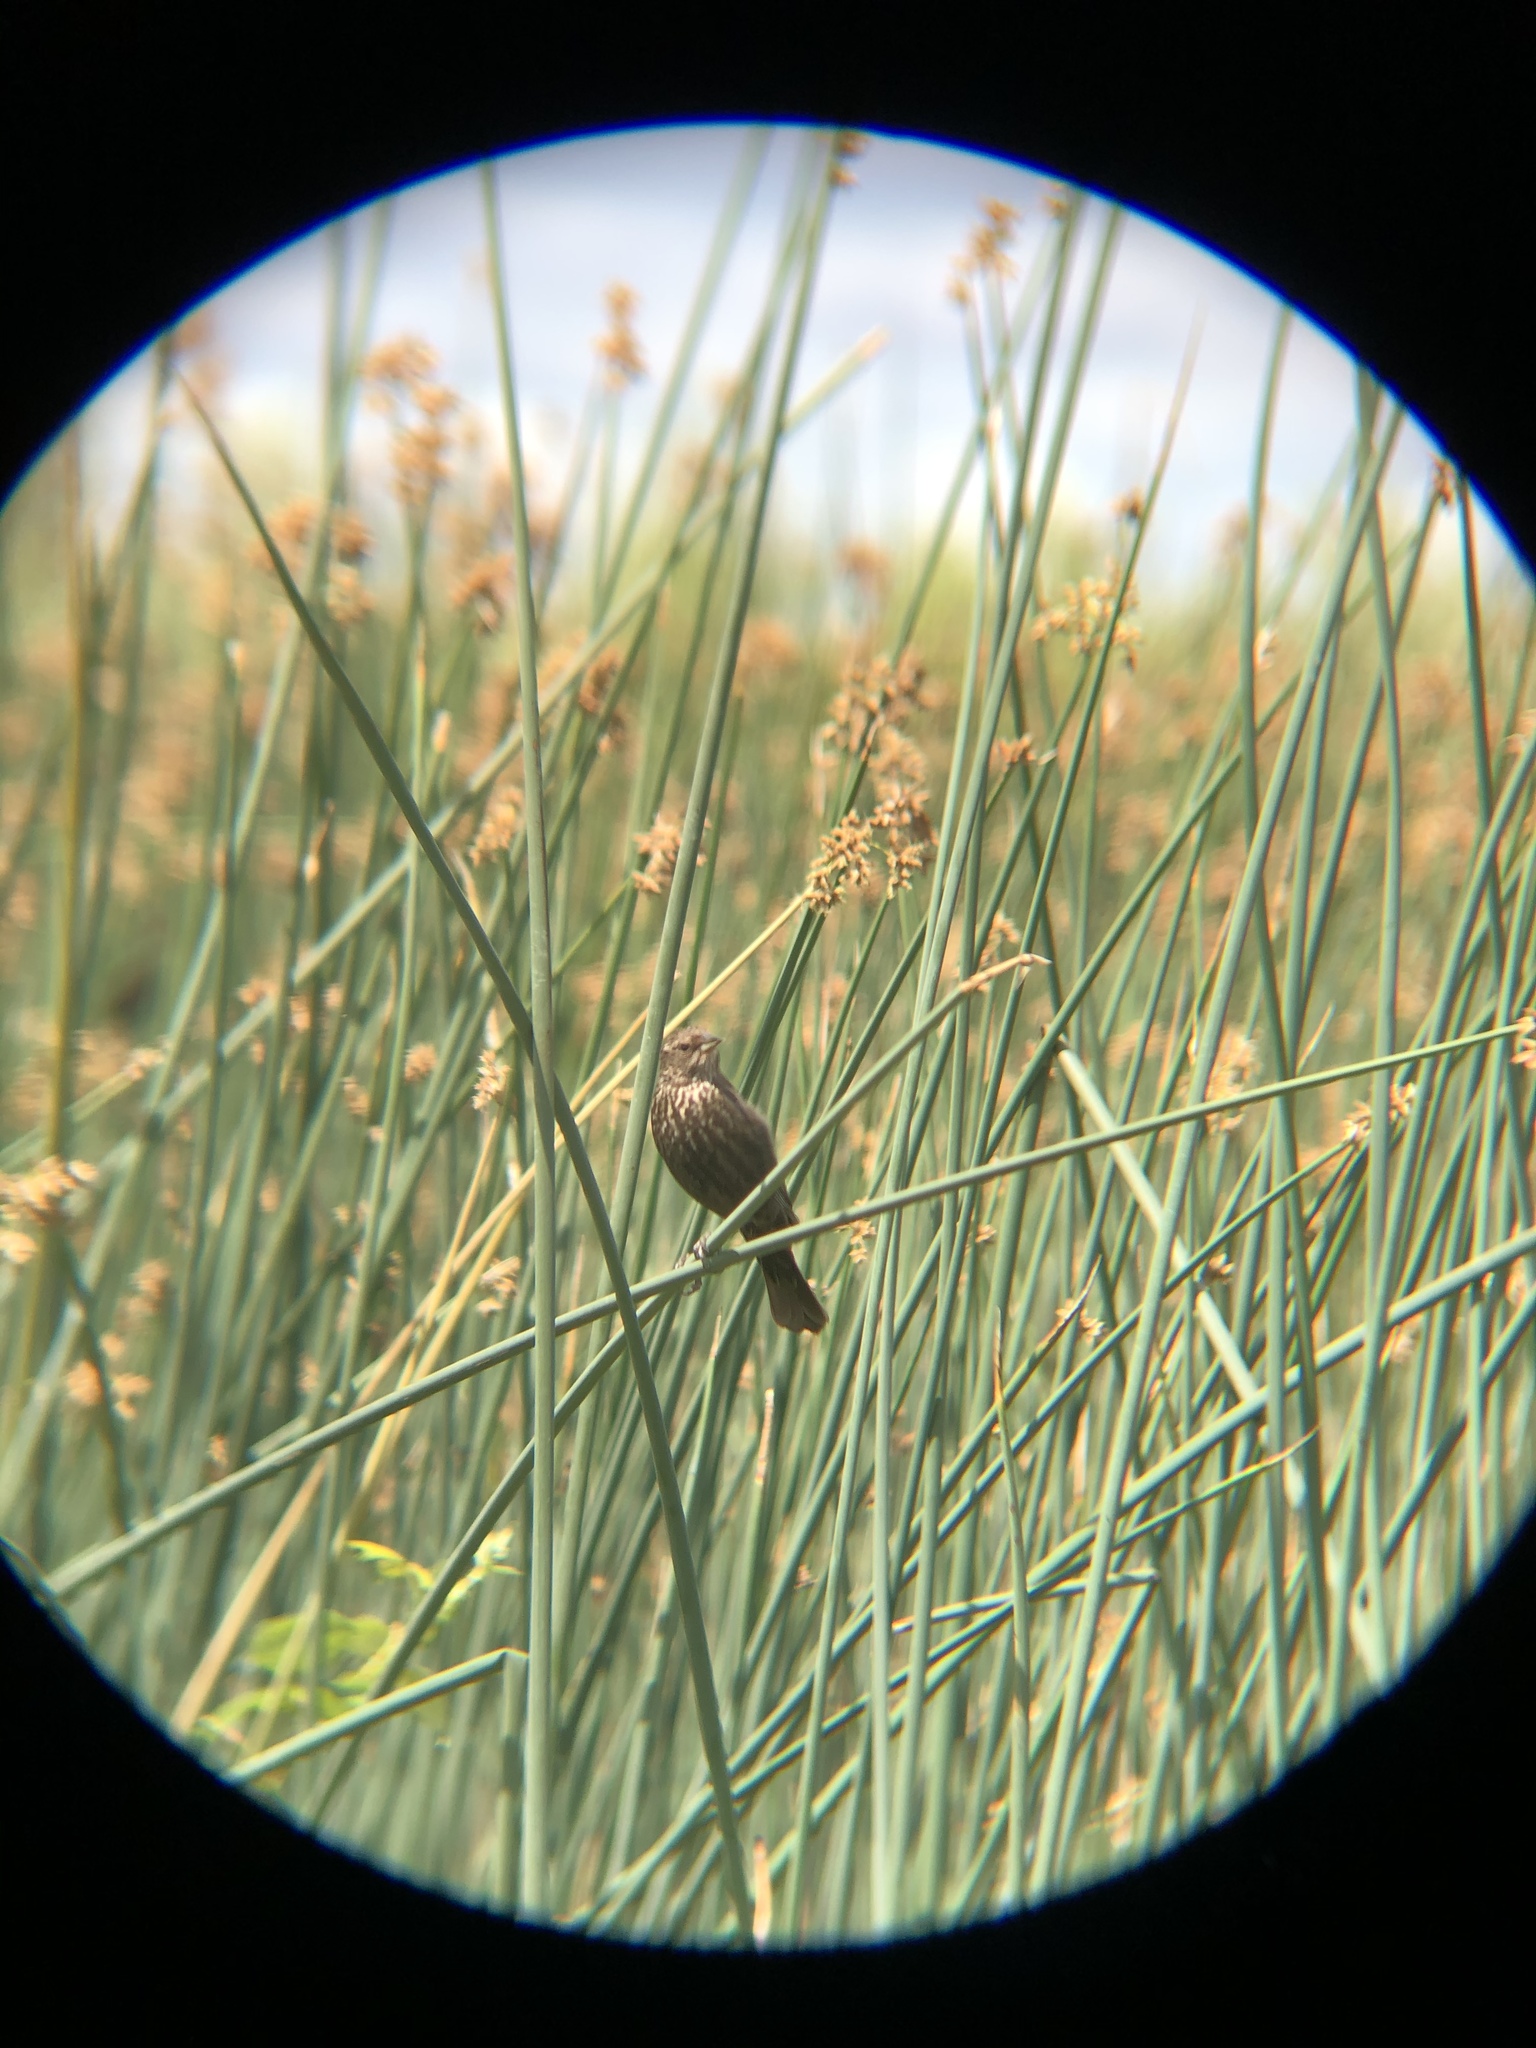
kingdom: Animalia
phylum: Chordata
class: Aves
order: Passeriformes
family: Icteridae
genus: Agelaius
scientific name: Agelaius phoeniceus
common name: Red-winged blackbird
